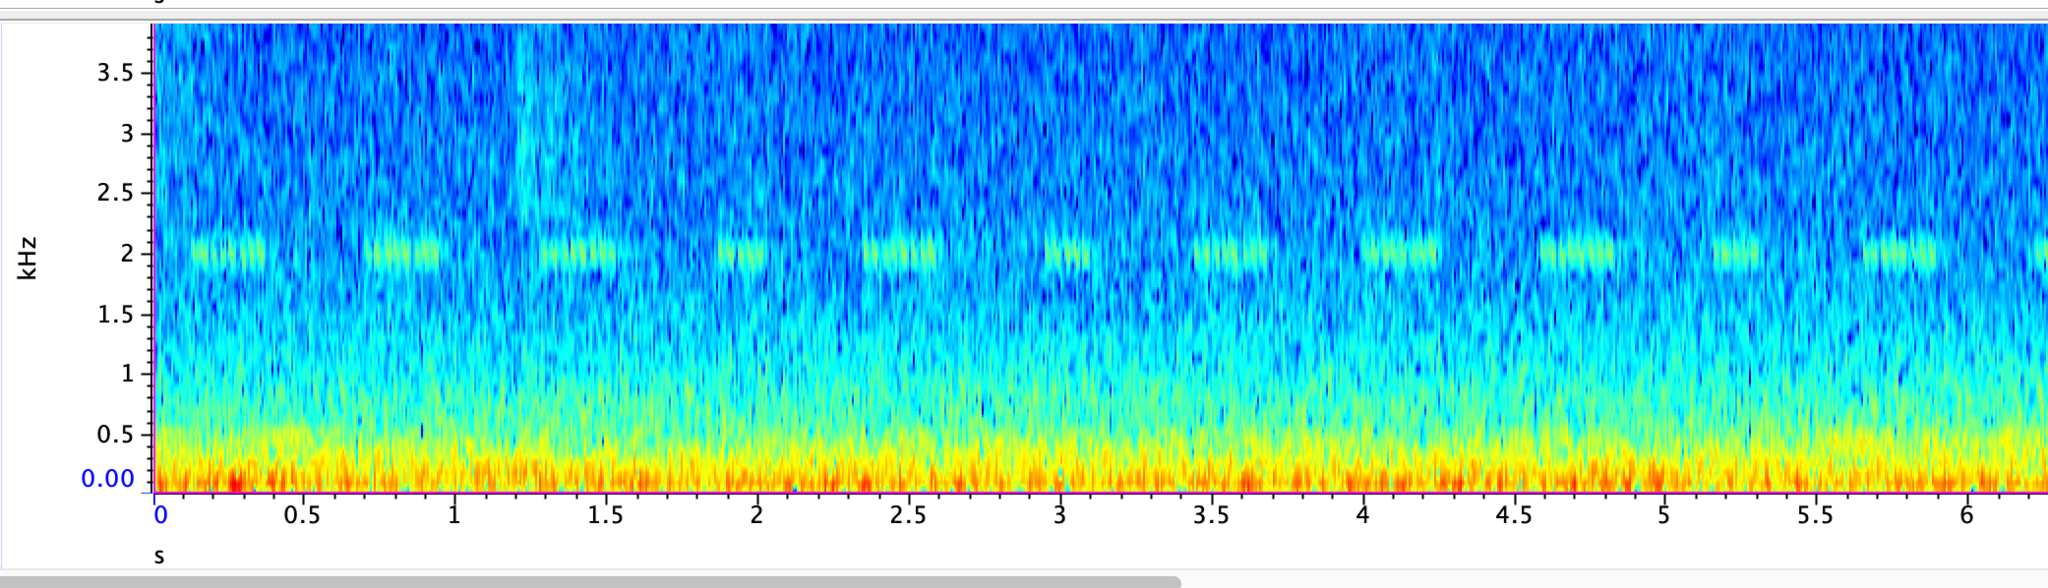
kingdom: Animalia
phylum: Arthropoda
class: Insecta
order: Orthoptera
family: Gryllidae
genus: Oecanthus
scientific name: Oecanthus fultoni
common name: Snowy tree cricket
